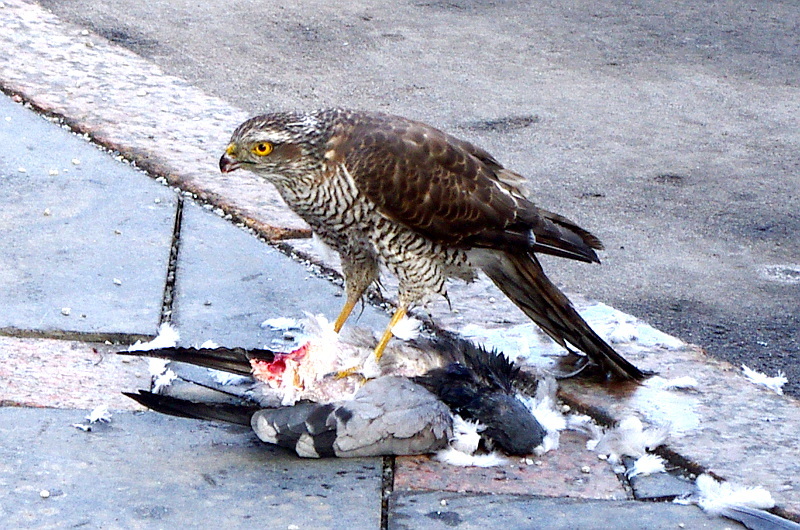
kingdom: Animalia
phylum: Chordata
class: Aves
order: Accipitriformes
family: Accipitridae
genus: Accipiter
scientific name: Accipiter nisus
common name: Eurasian sparrowhawk
